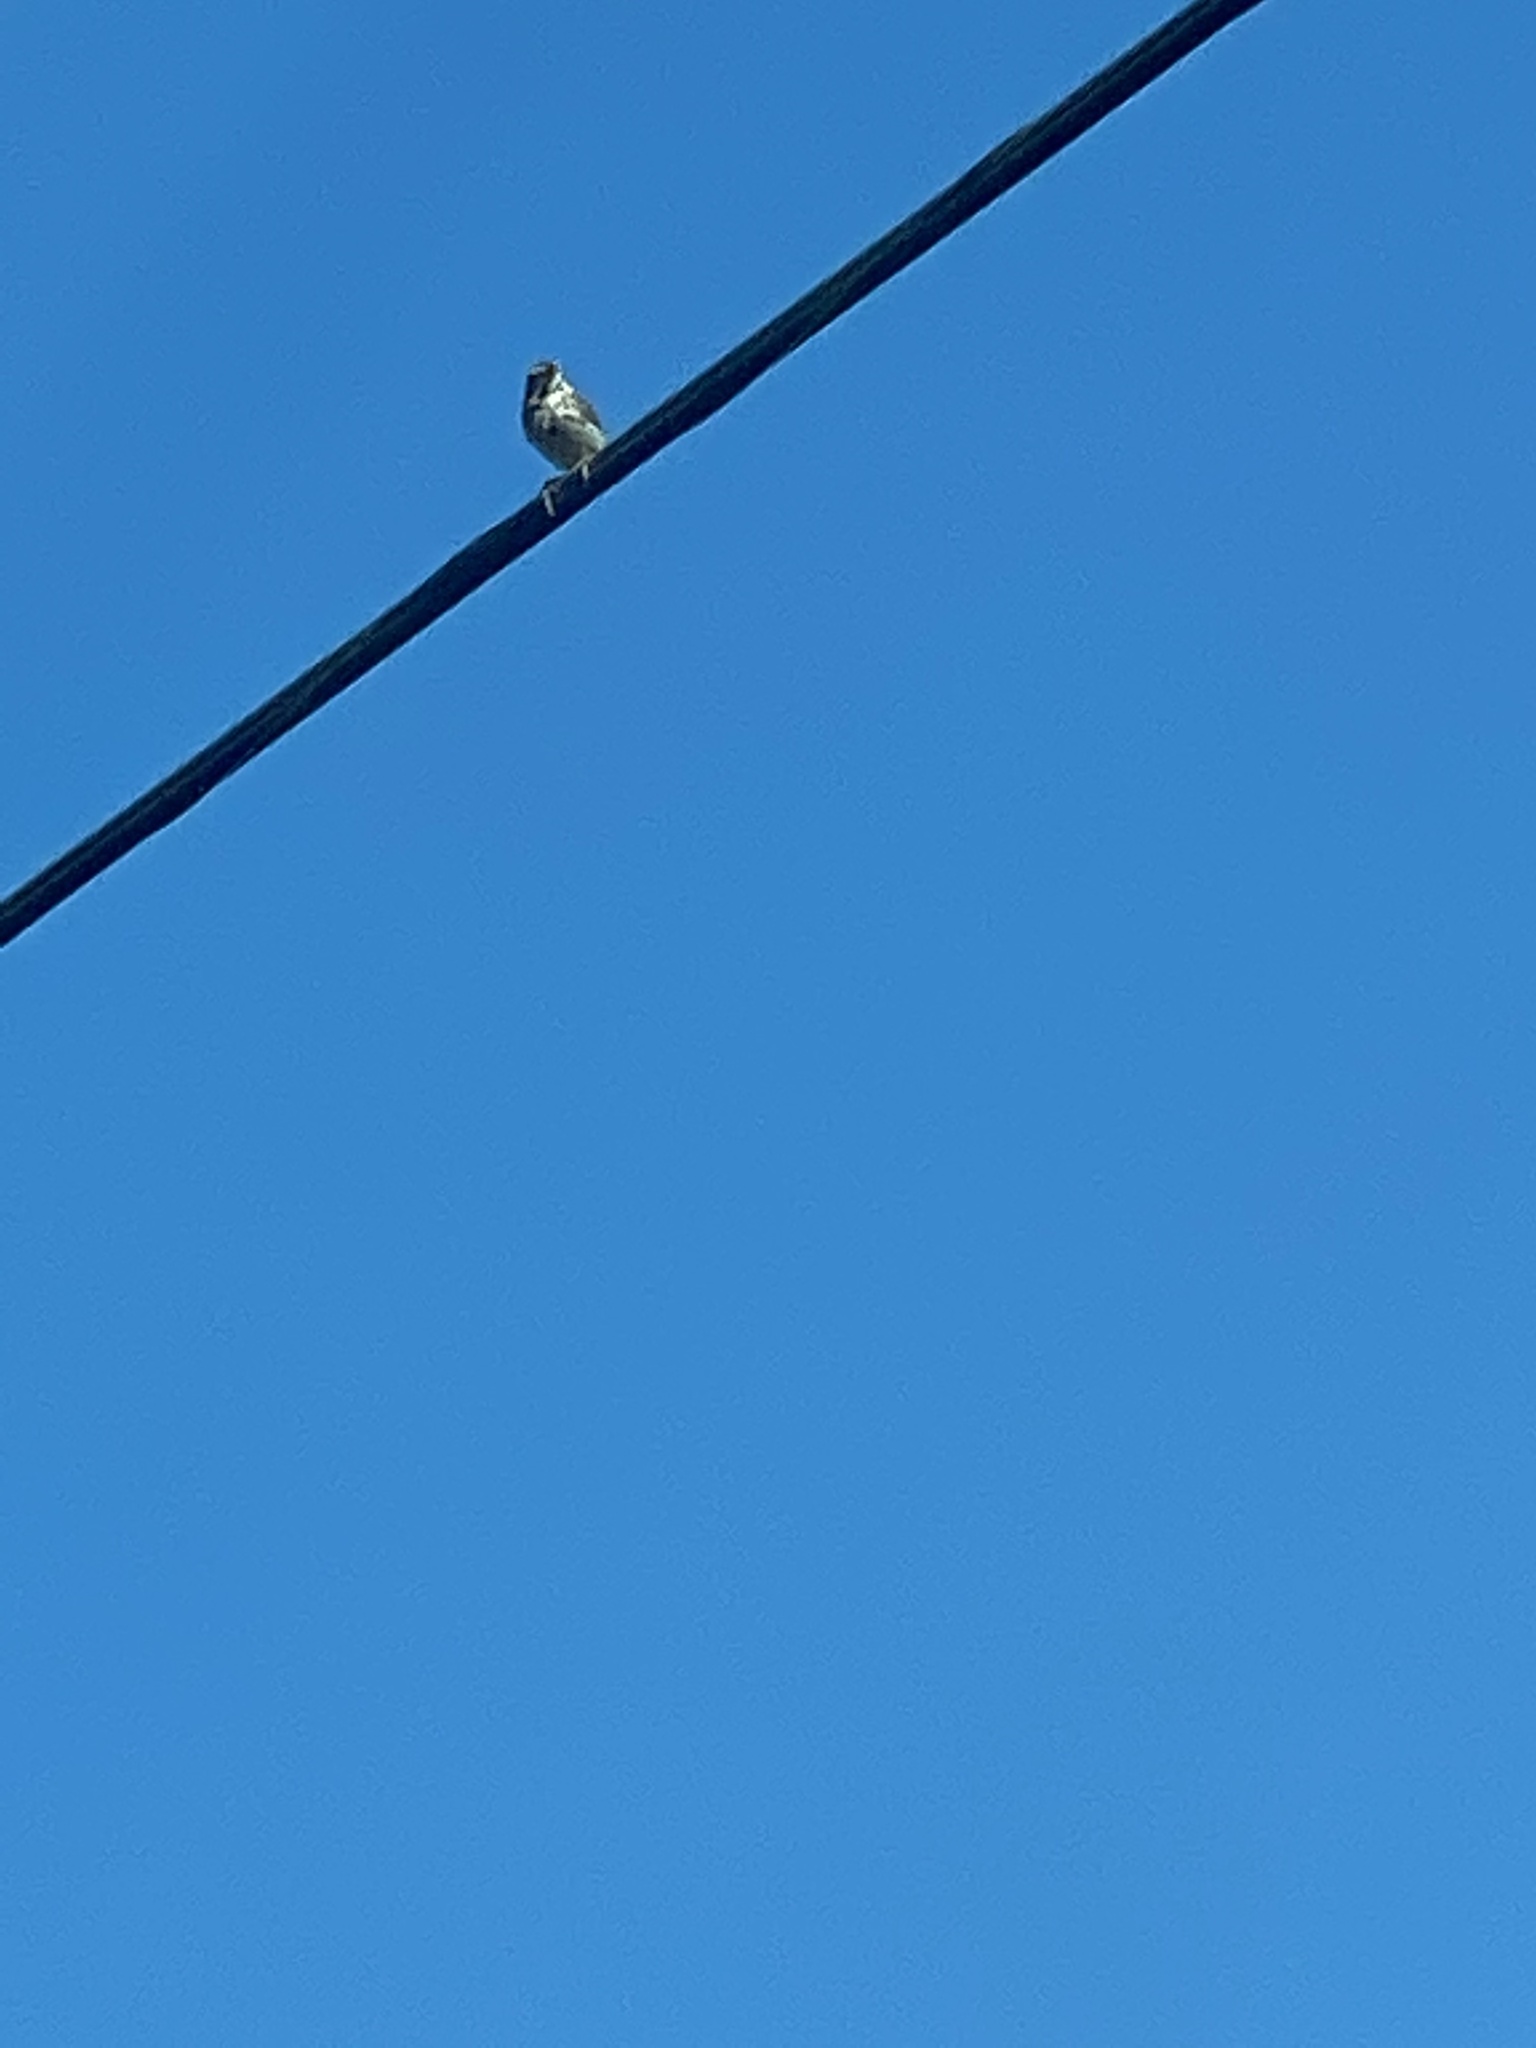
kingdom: Animalia
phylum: Chordata
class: Aves
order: Passeriformes
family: Passerellidae
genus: Melospiza
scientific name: Melospiza melodia
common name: Song sparrow
